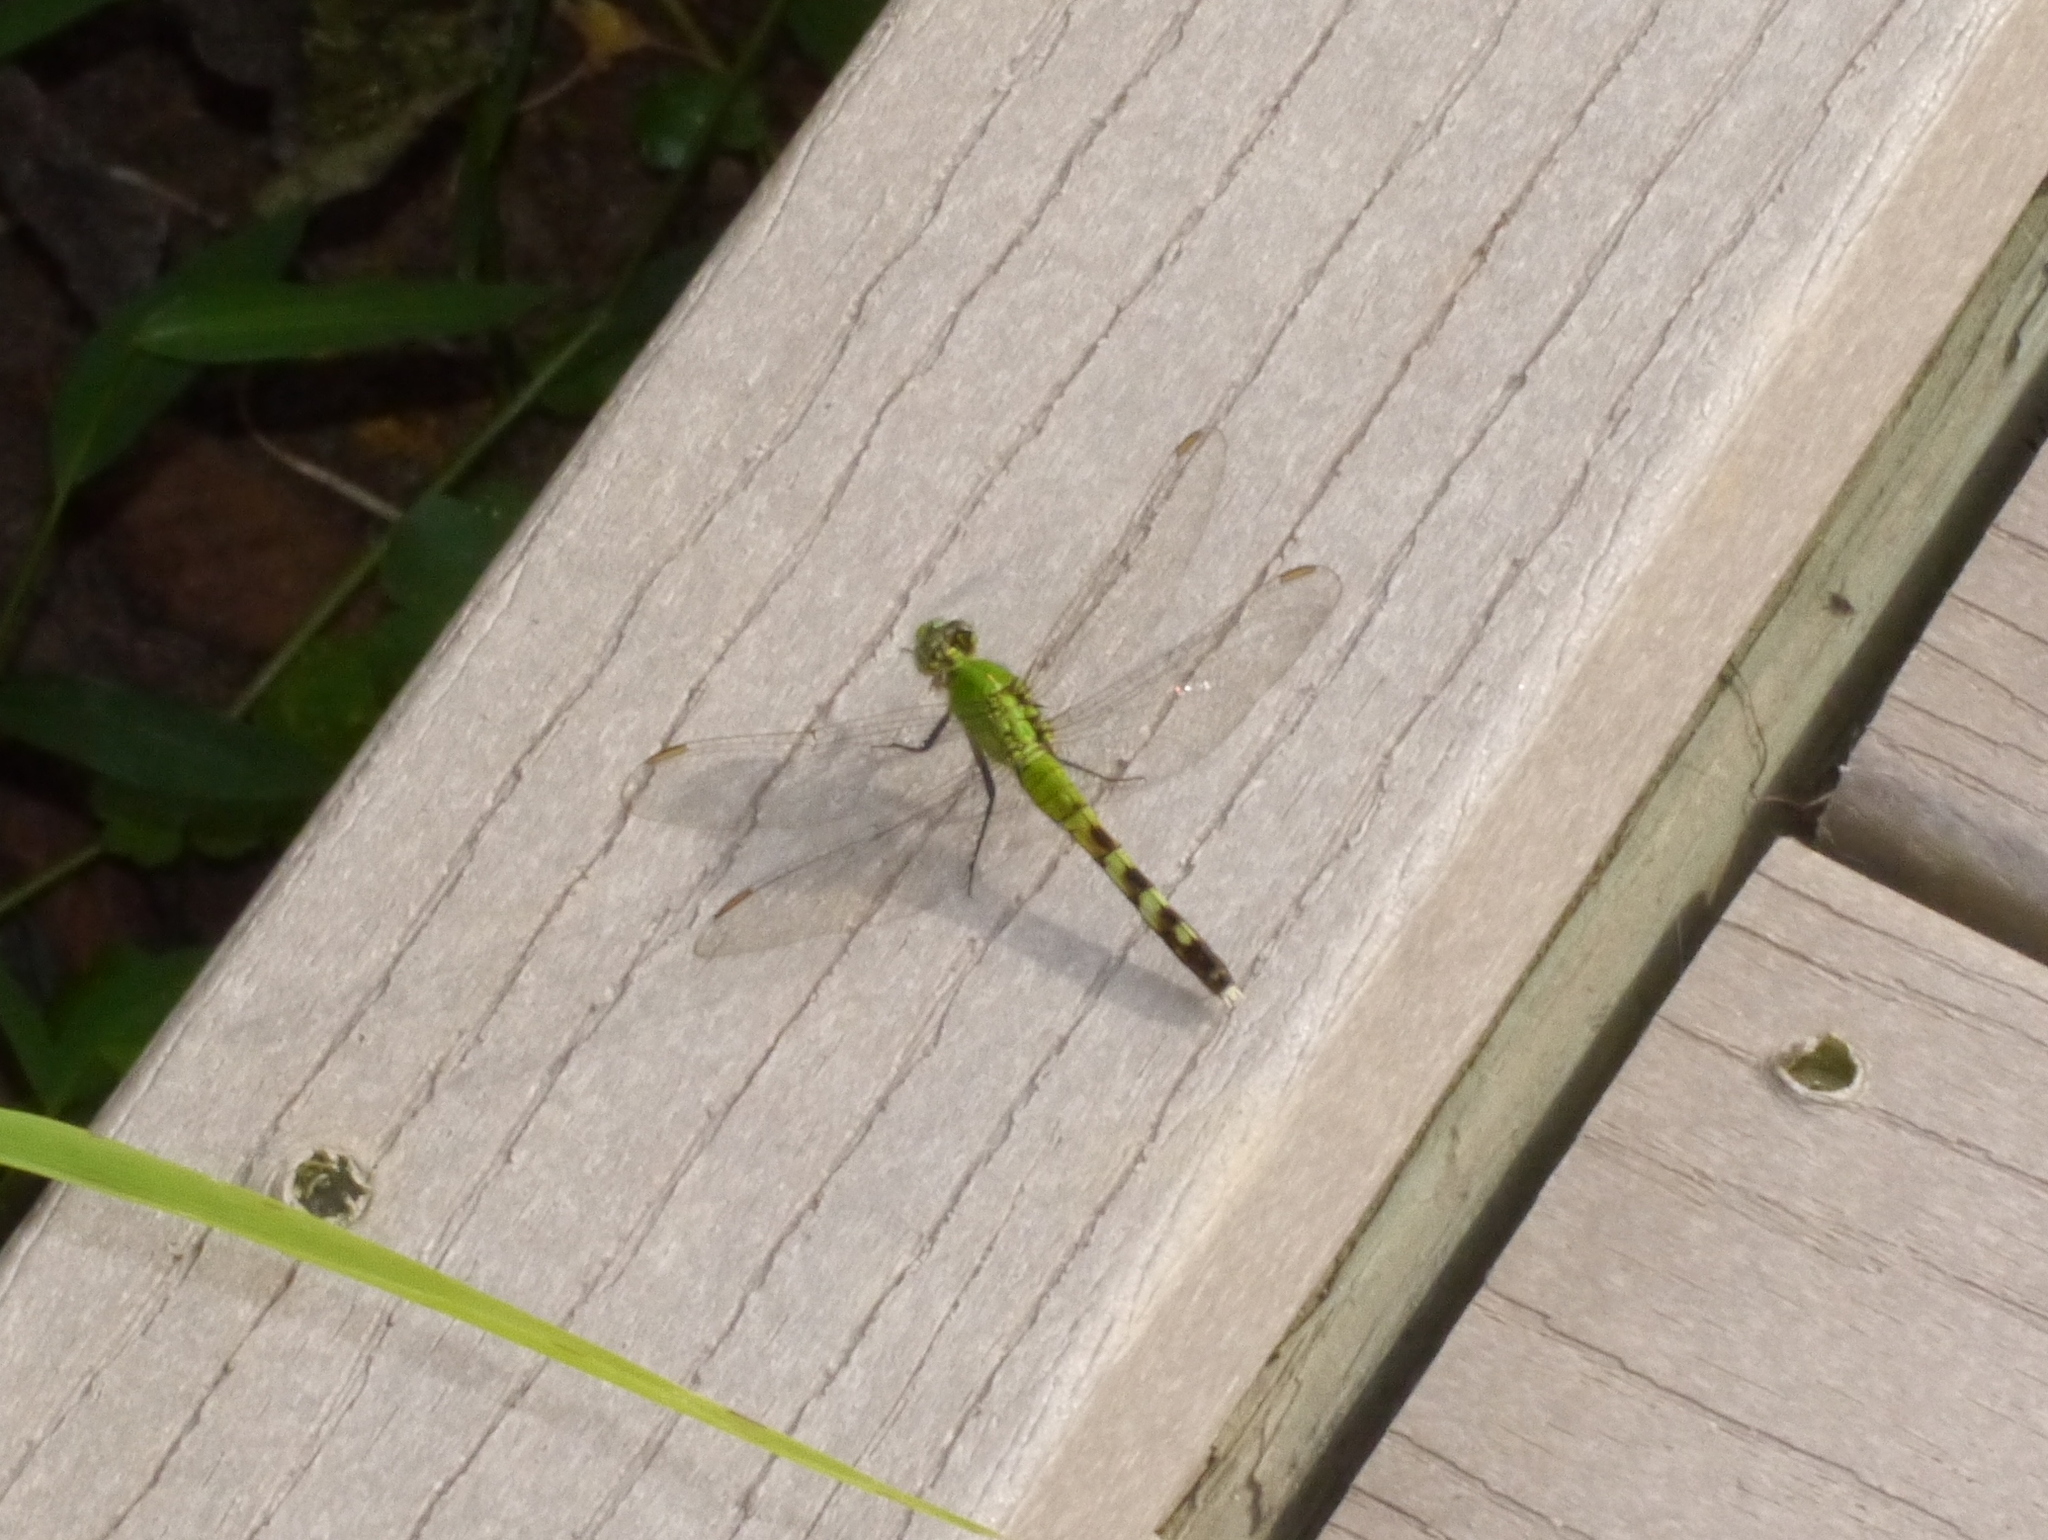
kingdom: Animalia
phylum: Arthropoda
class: Insecta
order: Odonata
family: Libellulidae
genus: Erythemis
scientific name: Erythemis simplicicollis
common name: Eastern pondhawk
